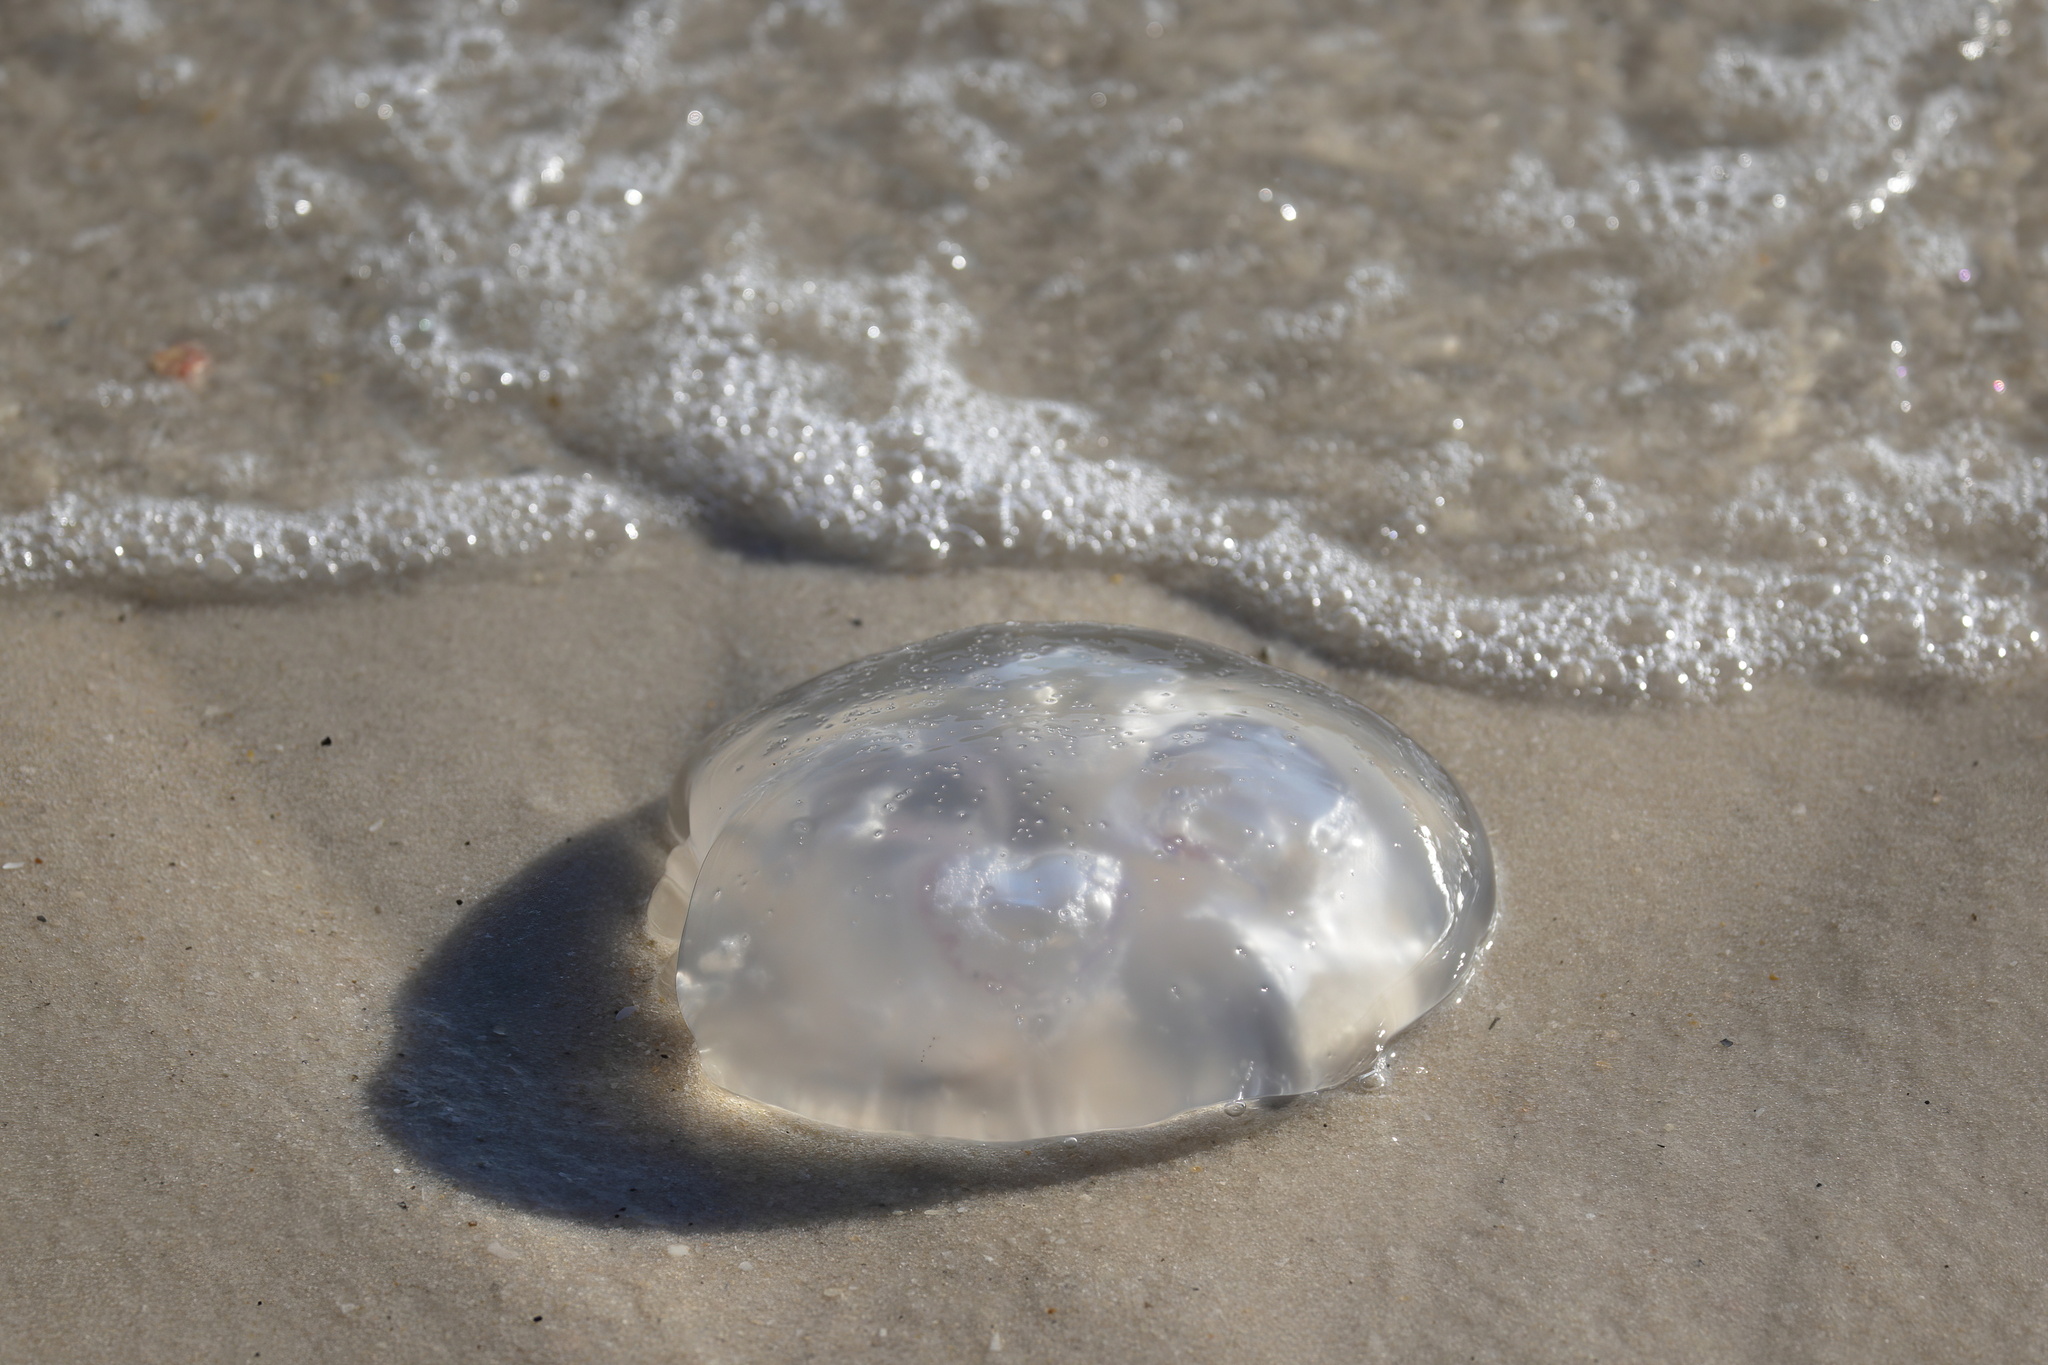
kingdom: Animalia
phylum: Cnidaria
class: Scyphozoa
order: Semaeostomeae
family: Ulmaridae
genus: Aurelia
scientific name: Aurelia marginalis
